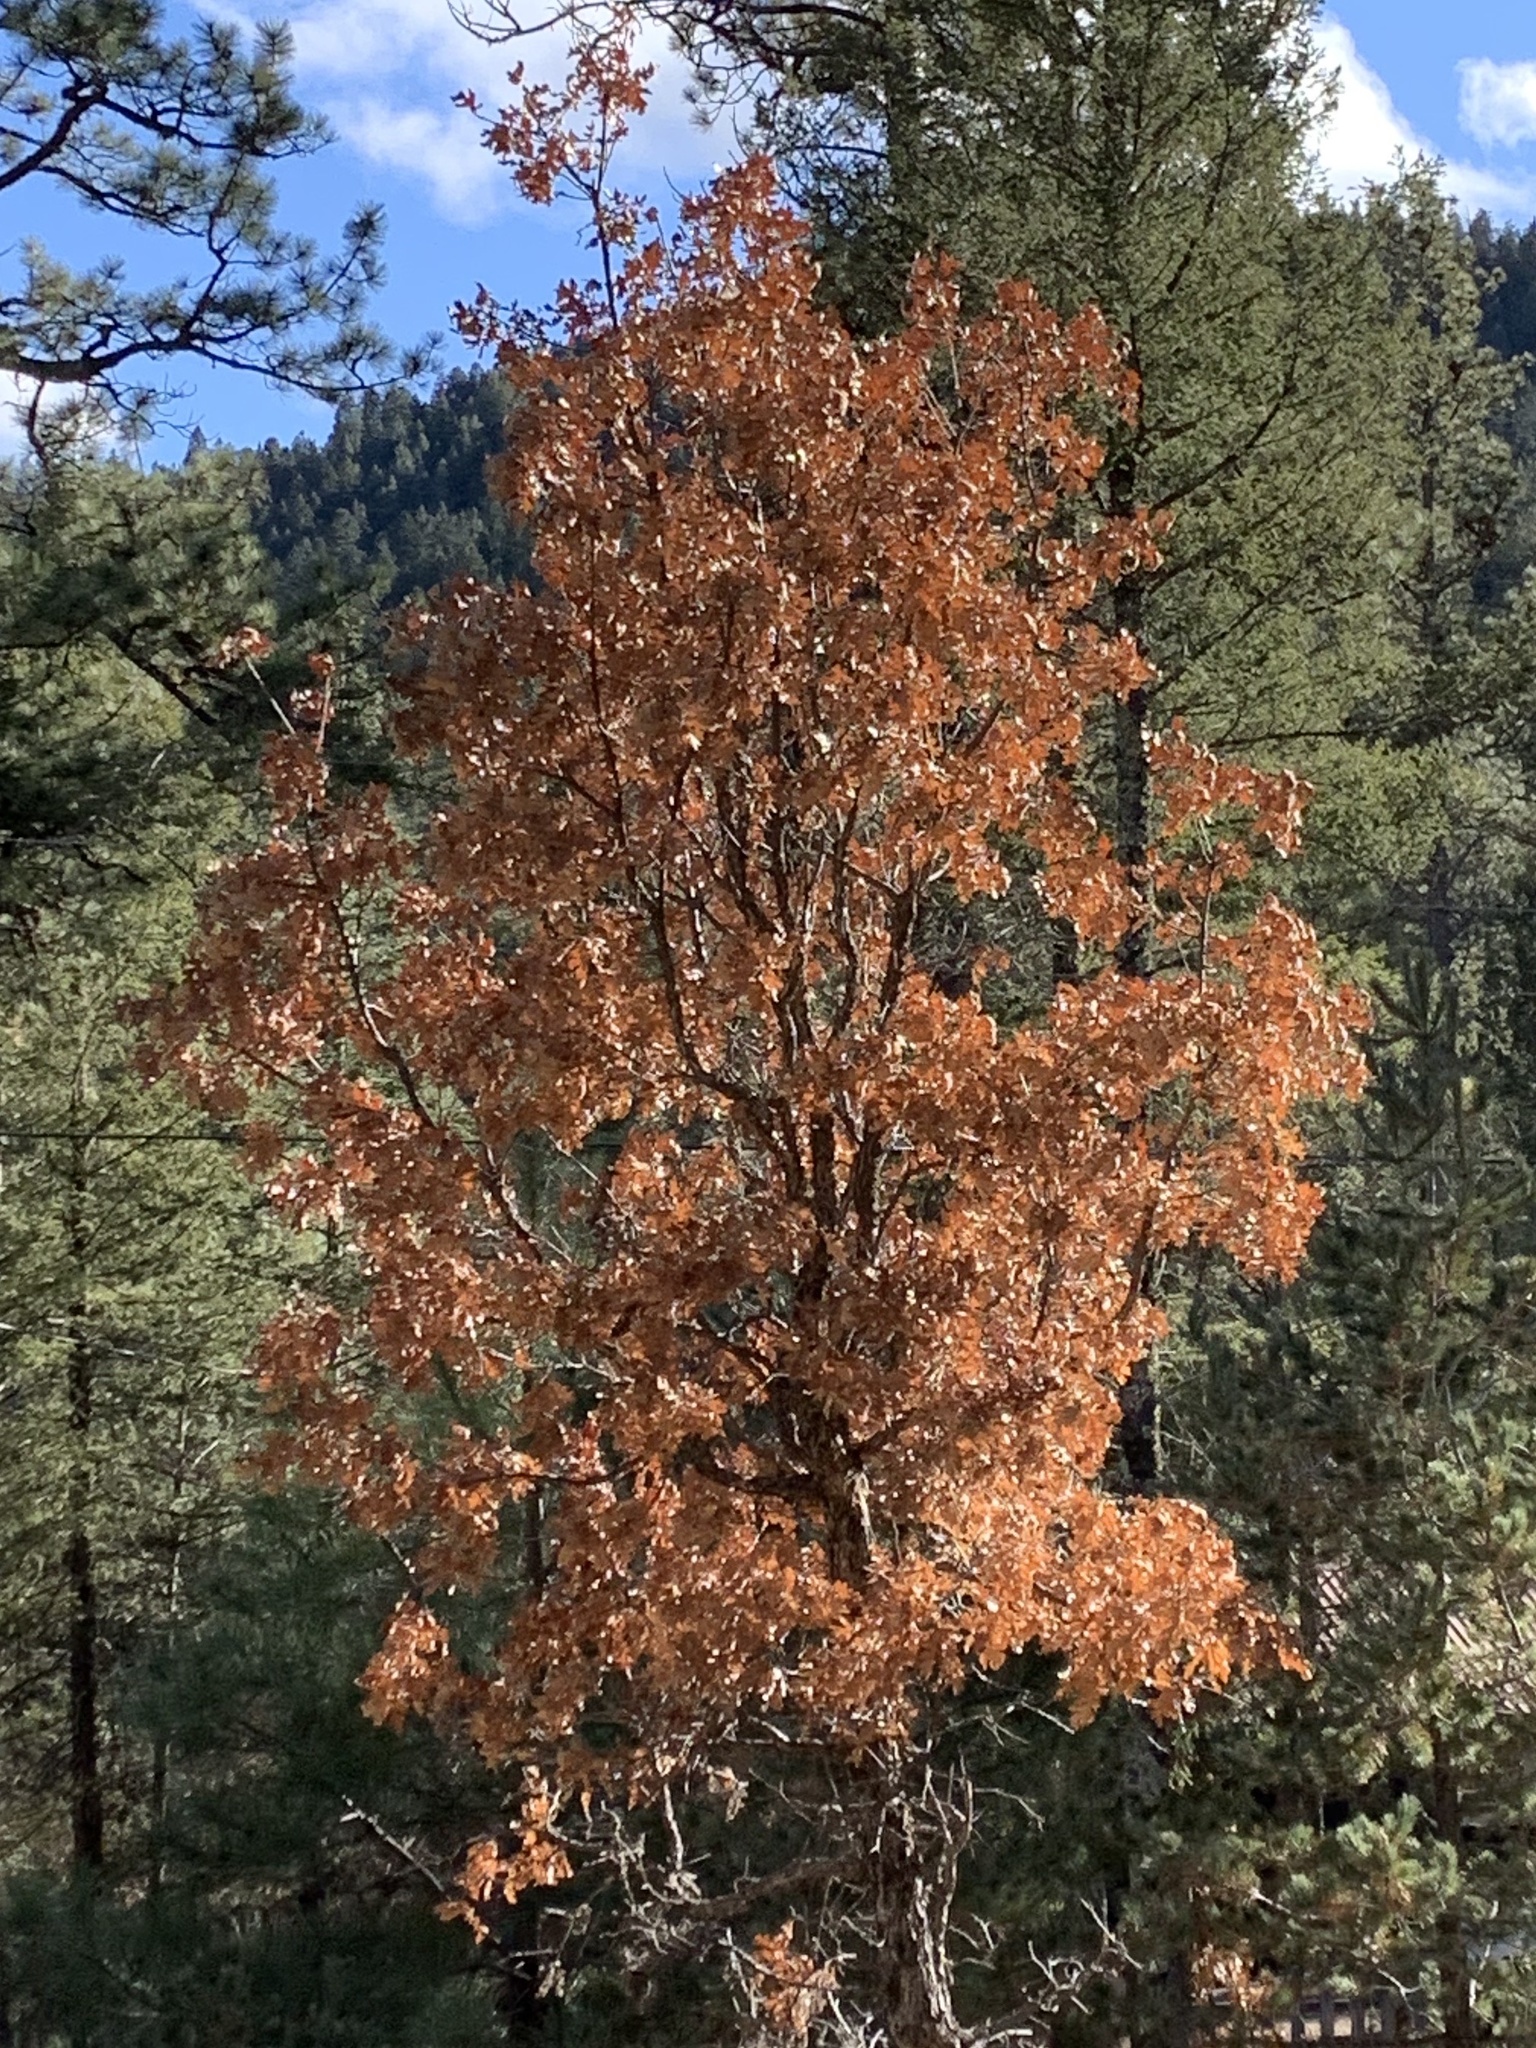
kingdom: Plantae
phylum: Tracheophyta
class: Magnoliopsida
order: Fagales
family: Fagaceae
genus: Quercus
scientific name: Quercus gambelii
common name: Gambel oak
